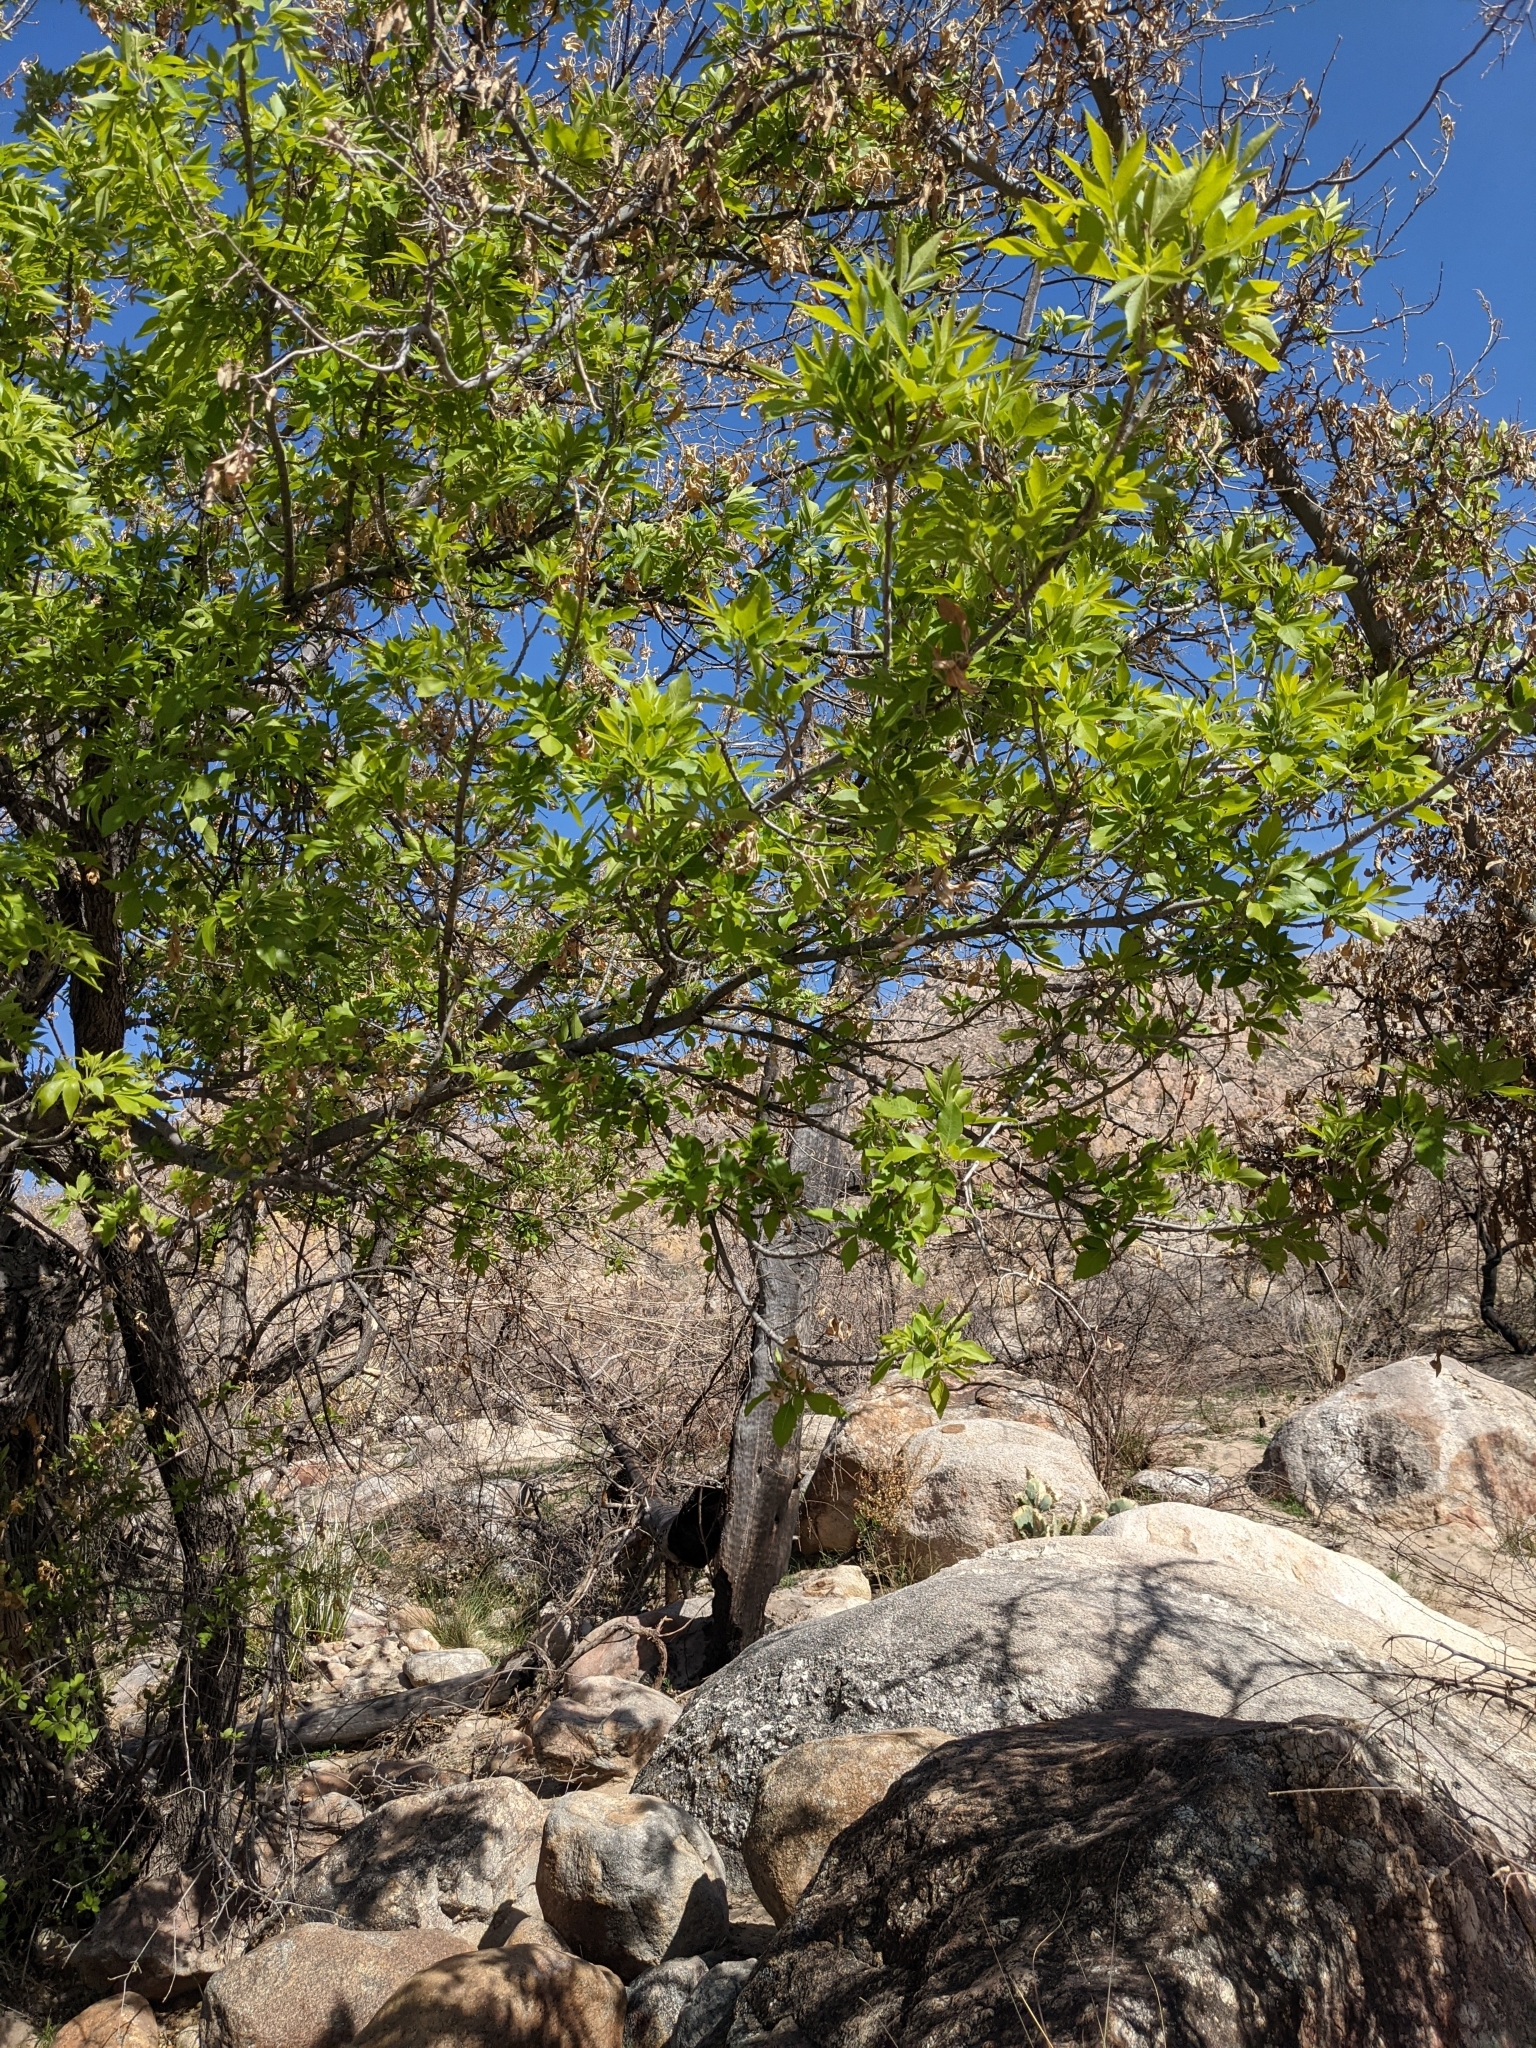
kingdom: Plantae
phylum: Tracheophyta
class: Magnoliopsida
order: Lamiales
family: Oleaceae
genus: Fraxinus
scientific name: Fraxinus velutina
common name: Arizon ash
